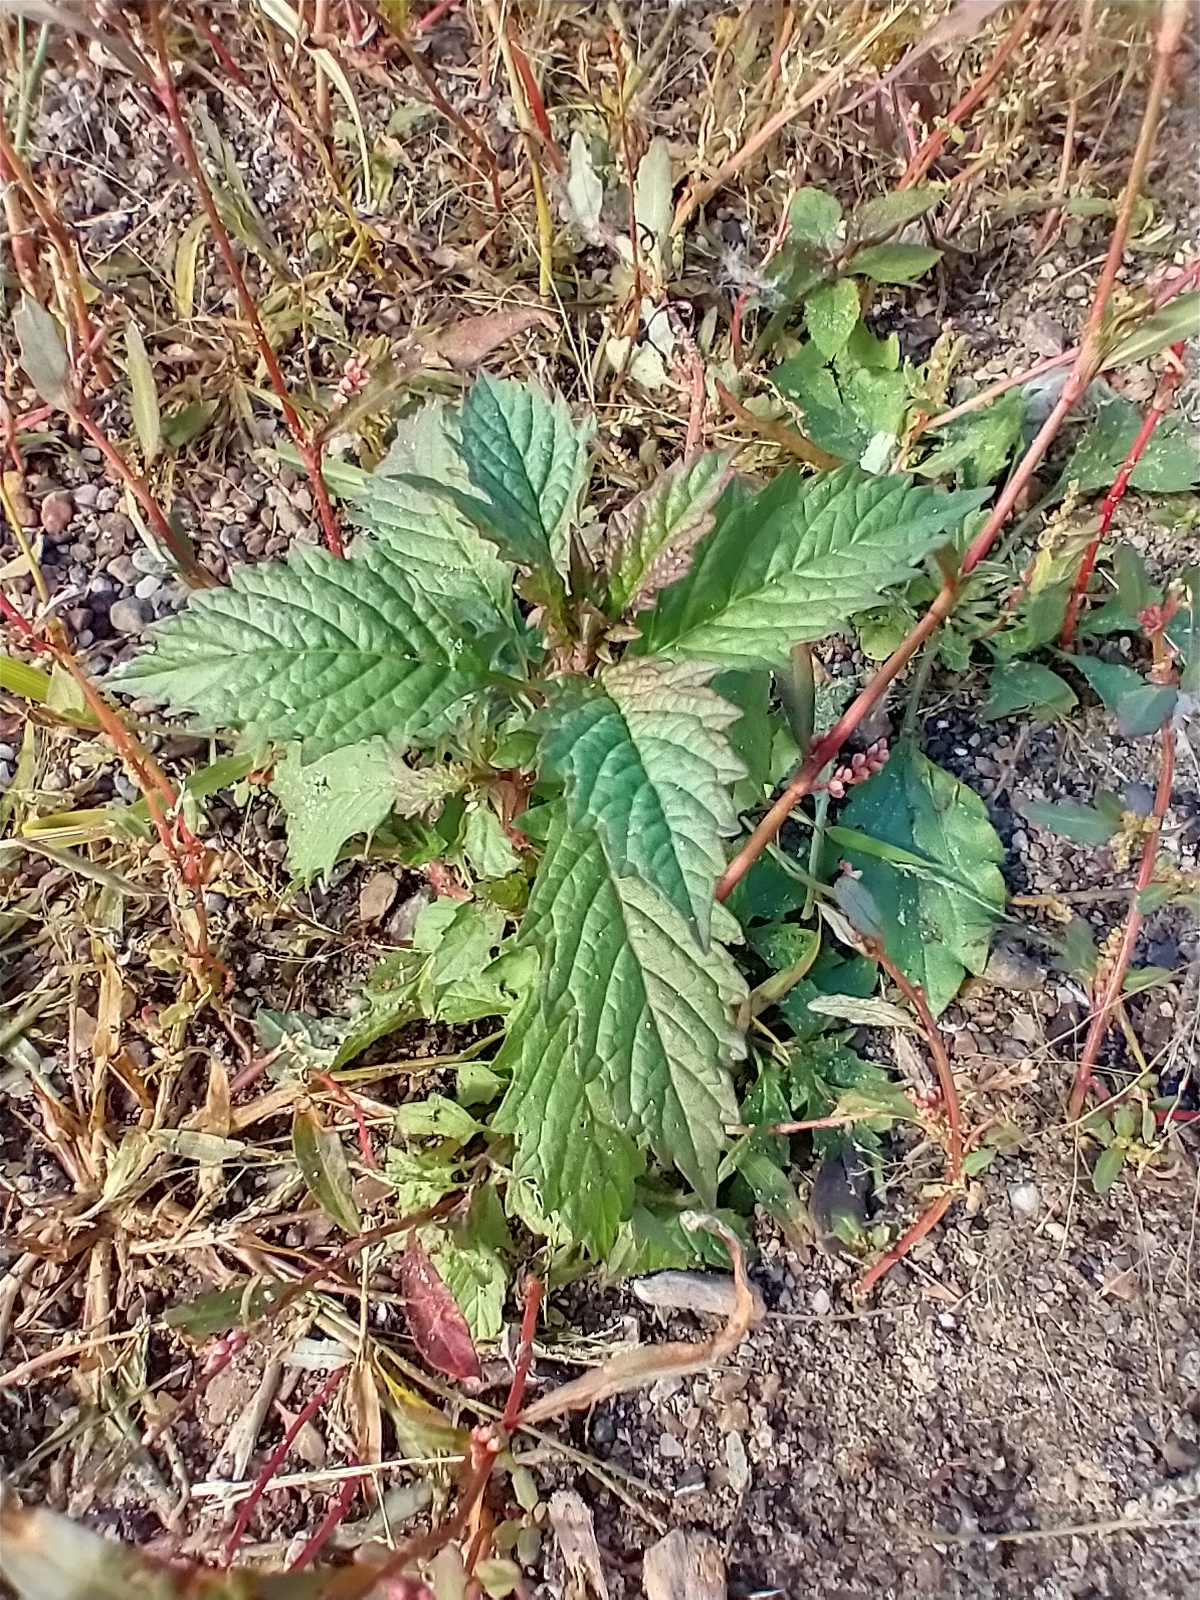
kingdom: Plantae
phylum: Tracheophyta
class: Magnoliopsida
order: Lamiales
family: Lamiaceae
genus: Lycopus
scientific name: Lycopus europaeus
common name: European bugleweed
